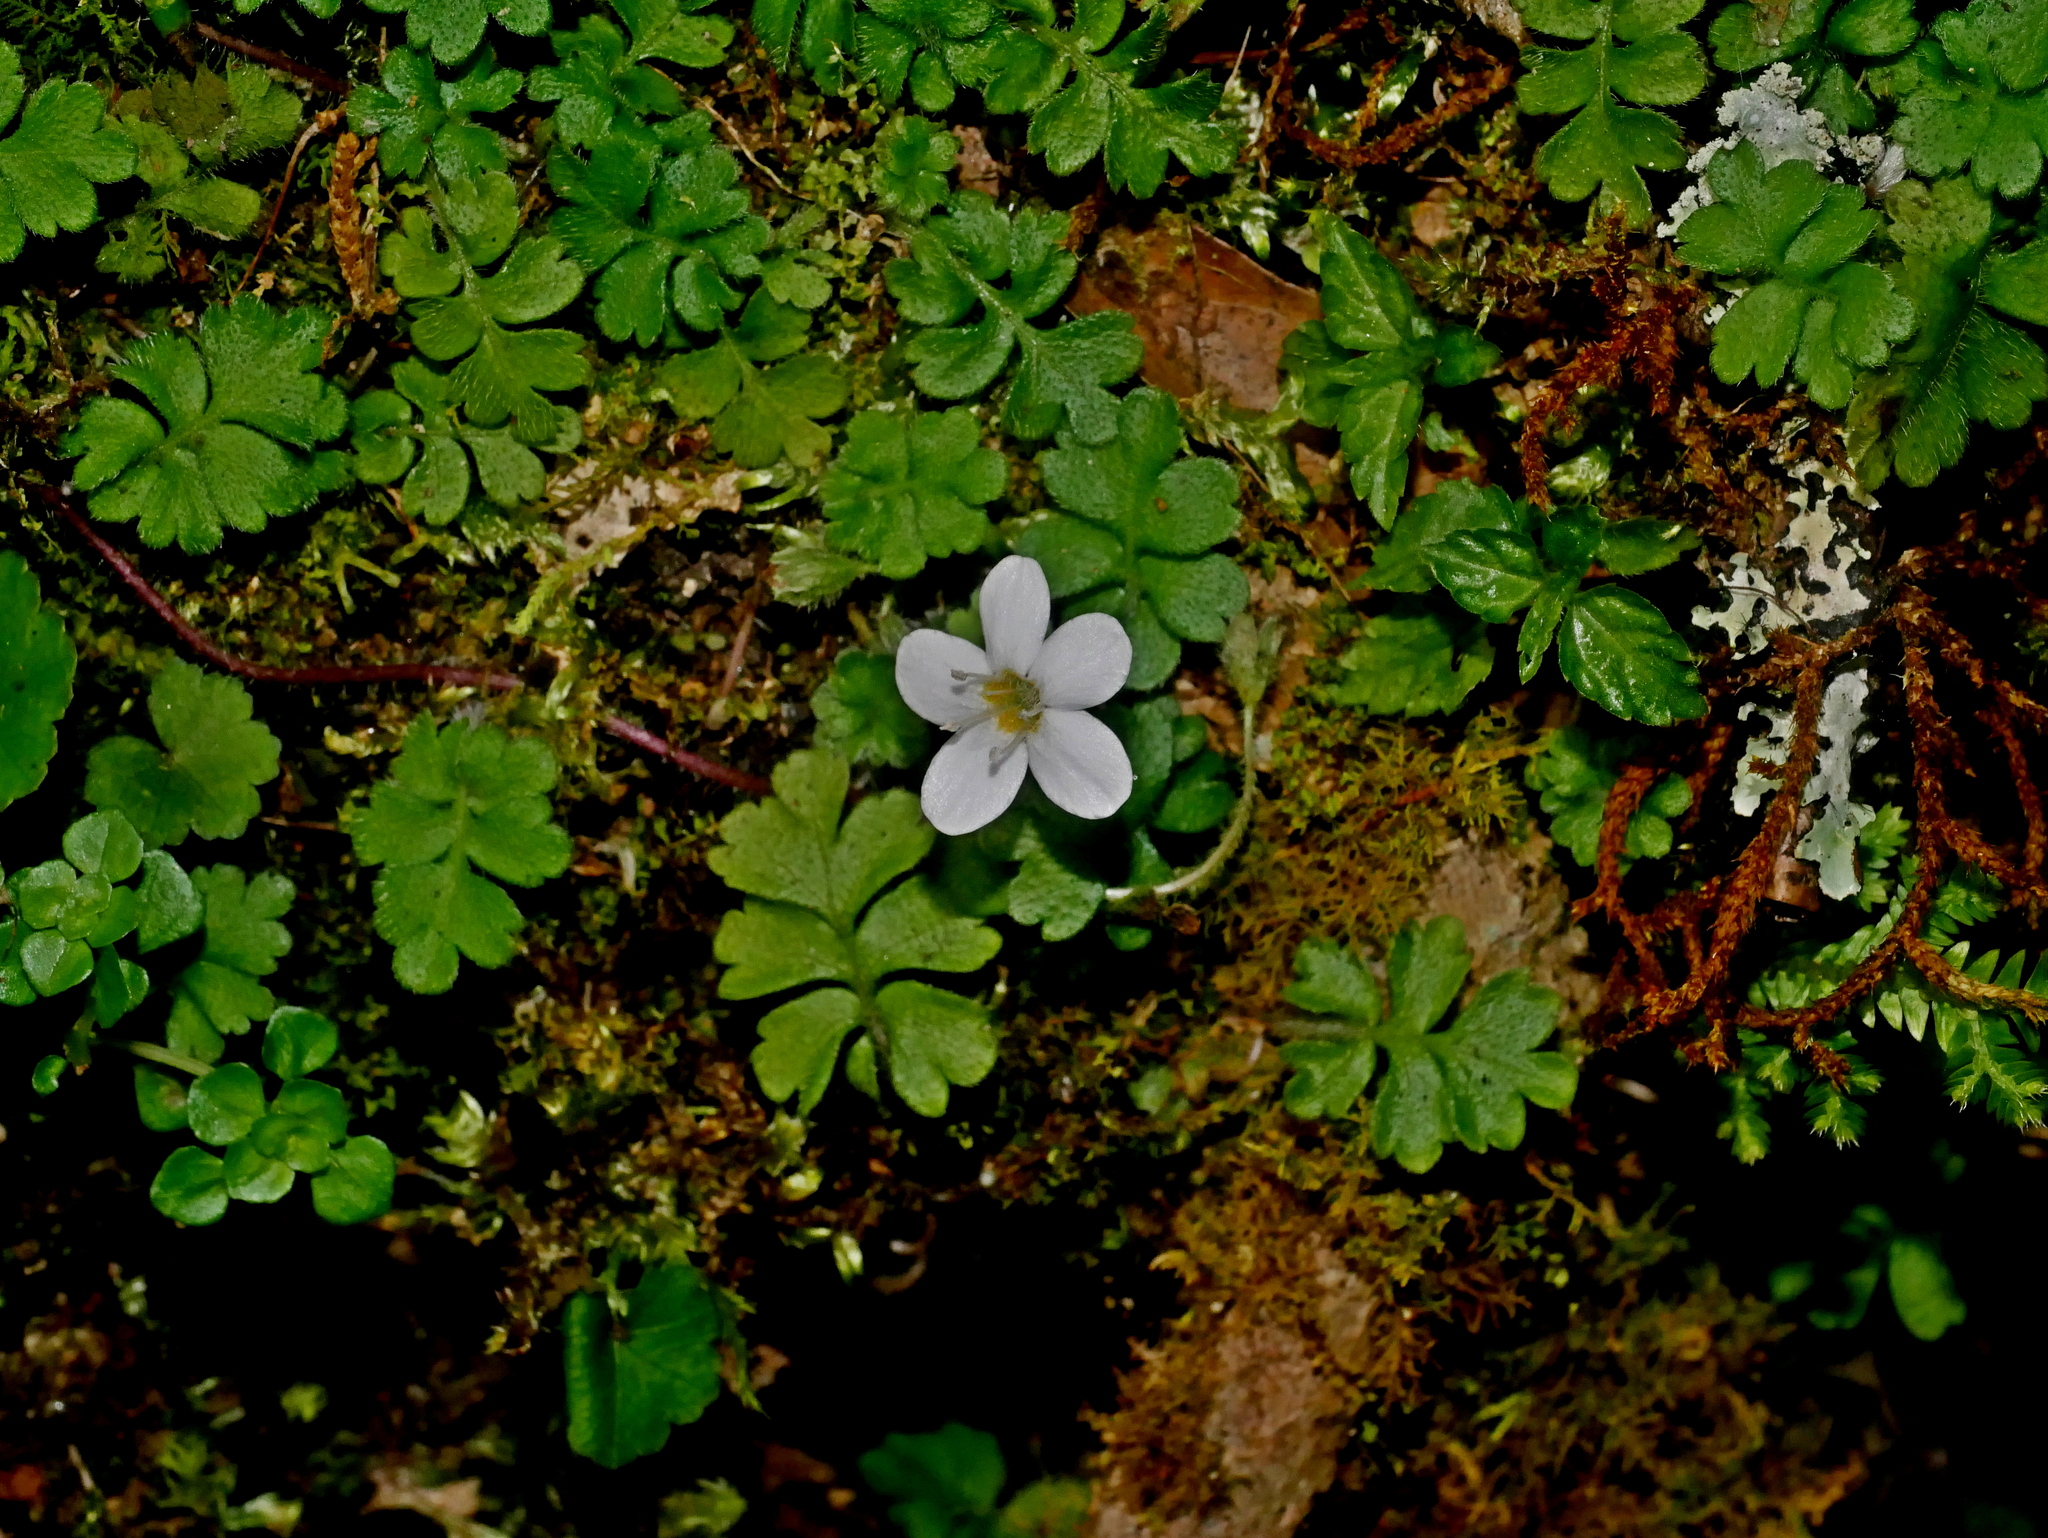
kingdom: Plantae
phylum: Tracheophyta
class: Magnoliopsida
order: Lamiales
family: Plantaginaceae
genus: Ellisiophyllum
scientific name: Ellisiophyllum pinnatum
